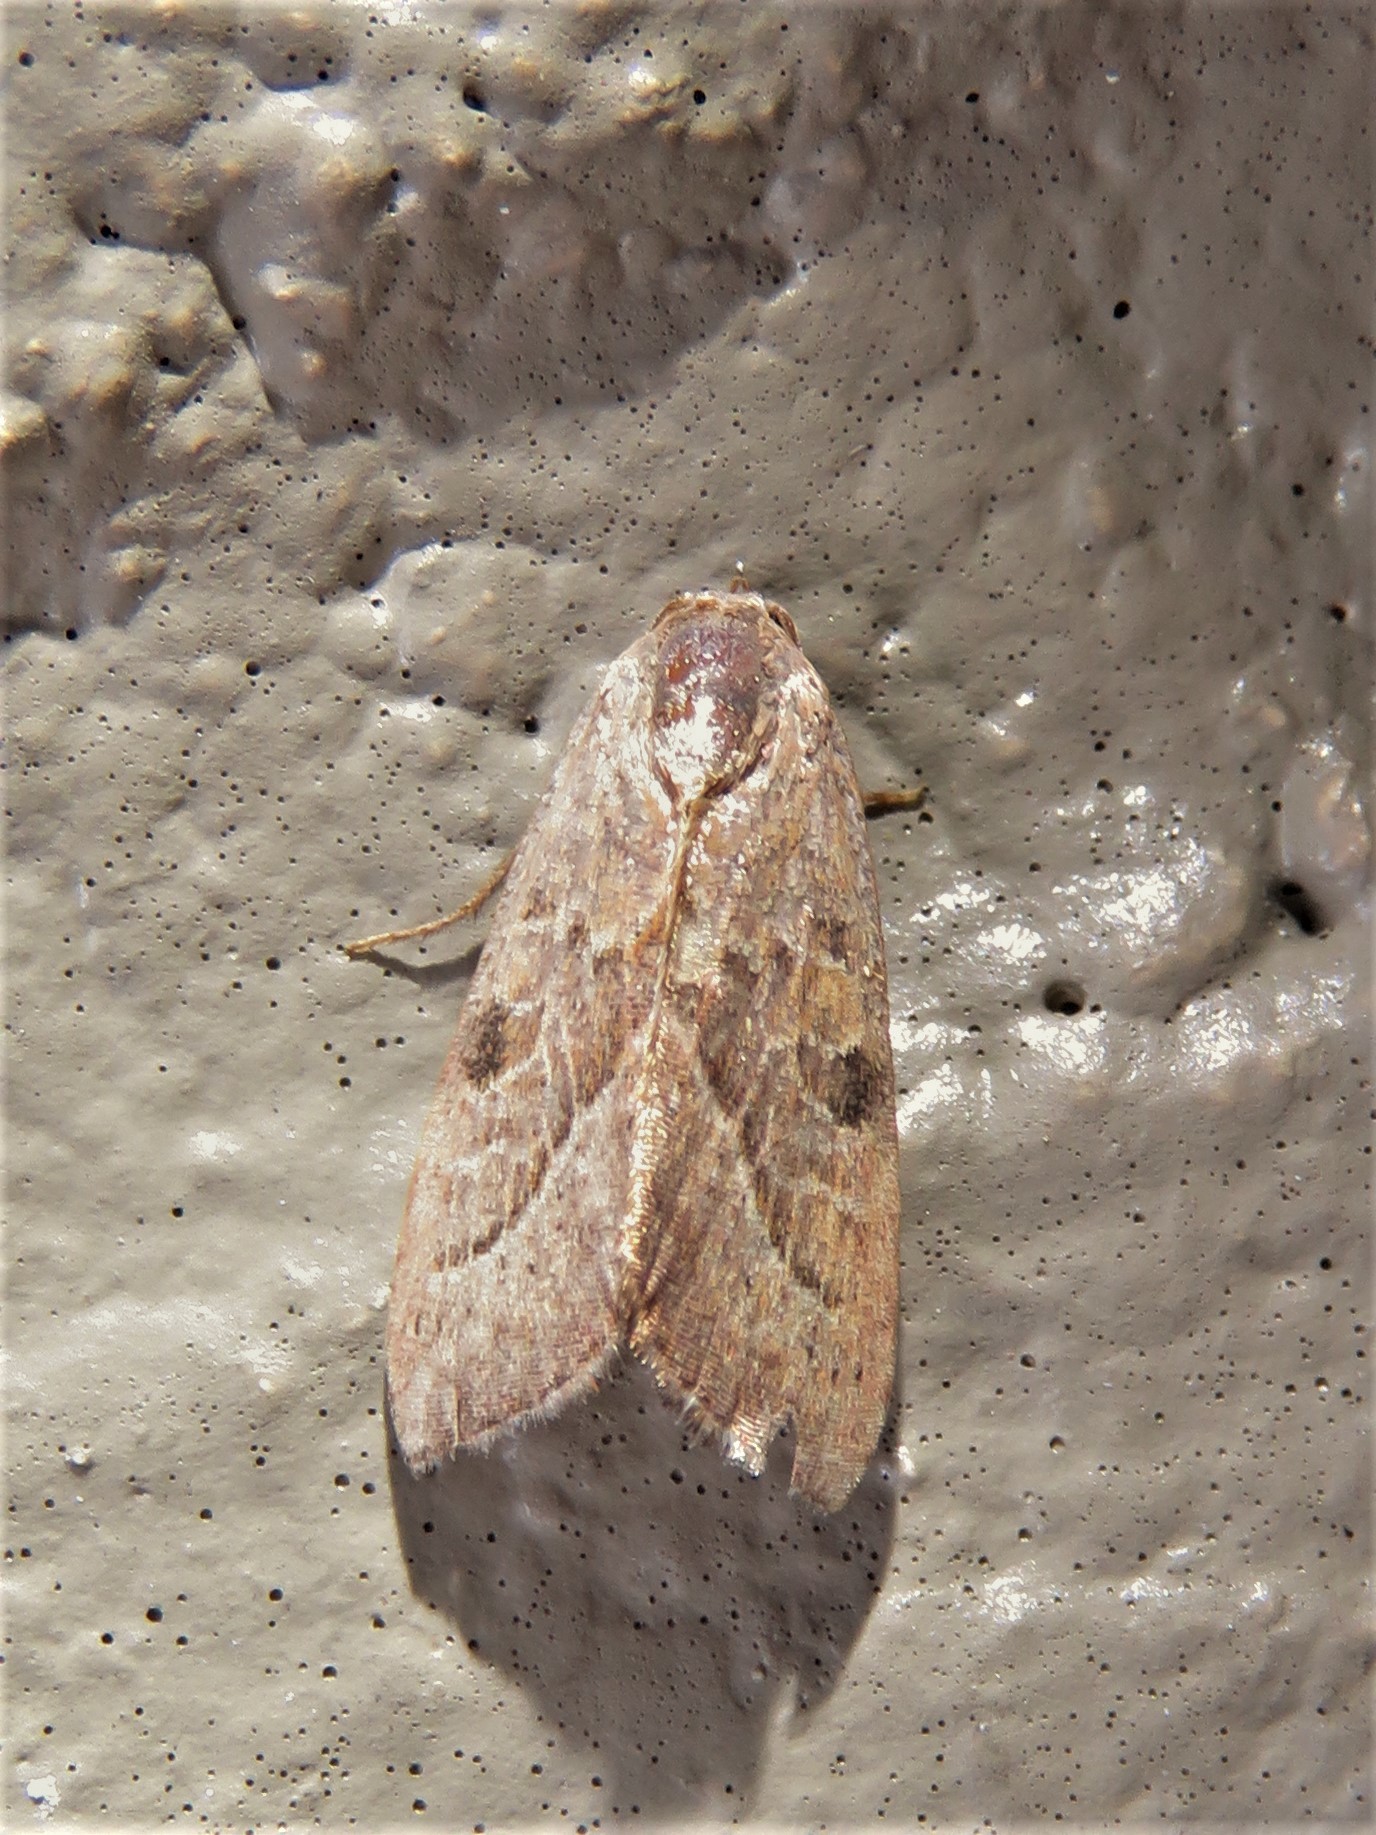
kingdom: Animalia
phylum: Arthropoda
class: Insecta
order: Lepidoptera
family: Noctuidae
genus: Galgula
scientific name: Galgula partita
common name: Wedgeling
